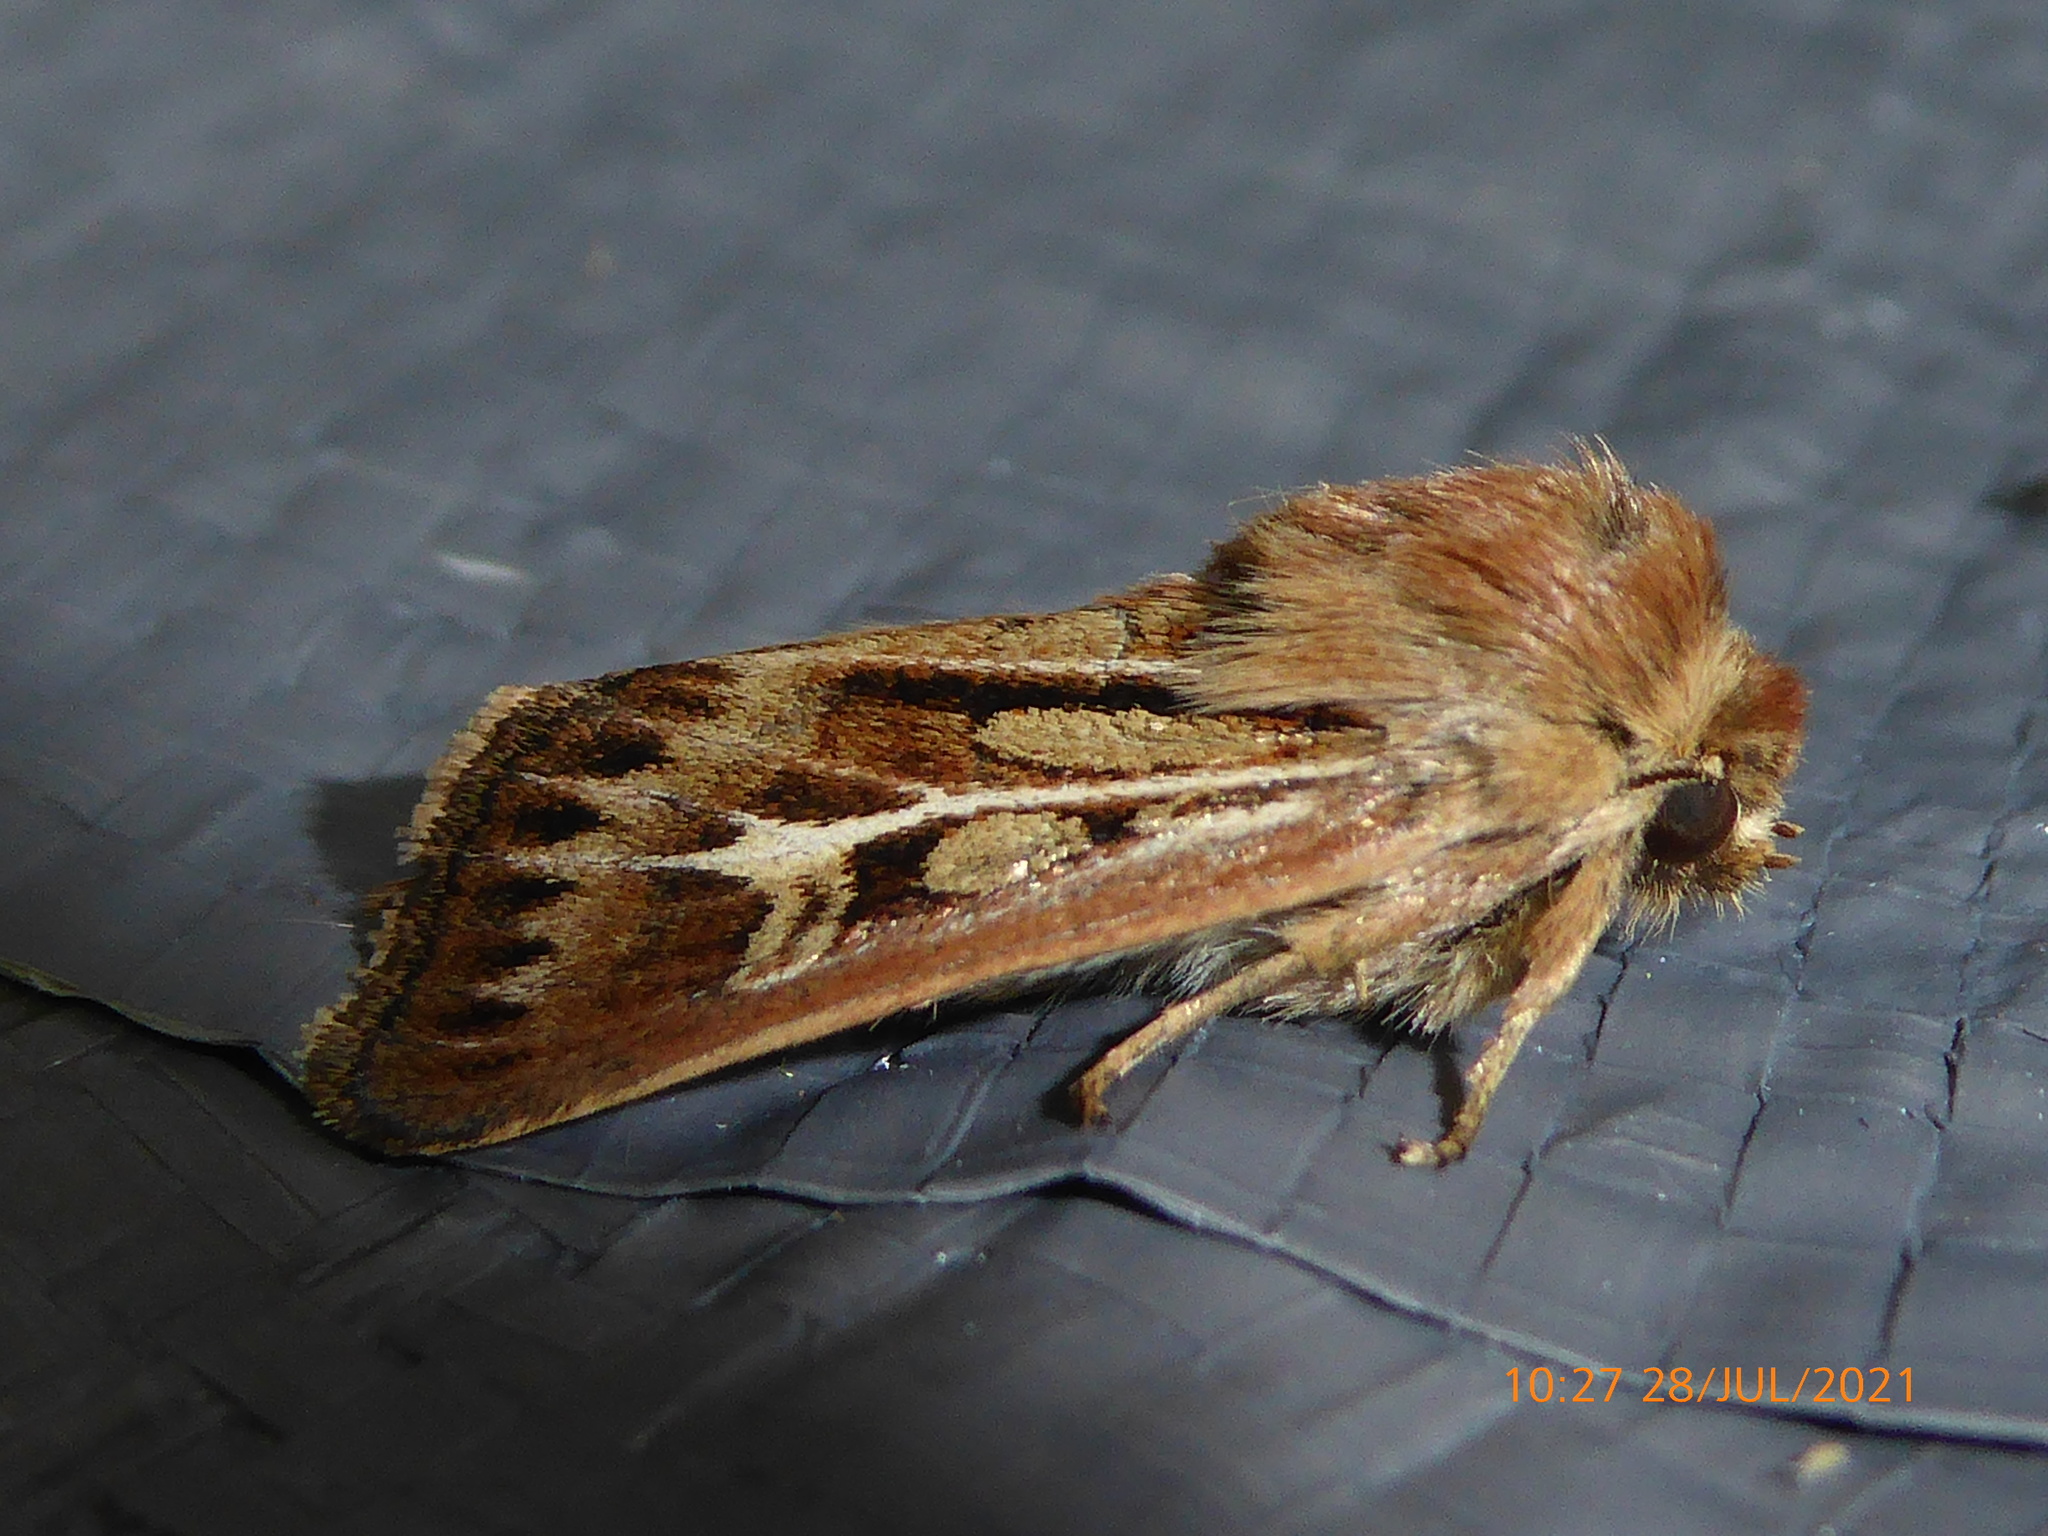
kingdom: Animalia
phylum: Arthropoda
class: Insecta
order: Lepidoptera
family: Noctuidae
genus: Cerapteryx
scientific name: Cerapteryx graminis
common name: Antler moth
